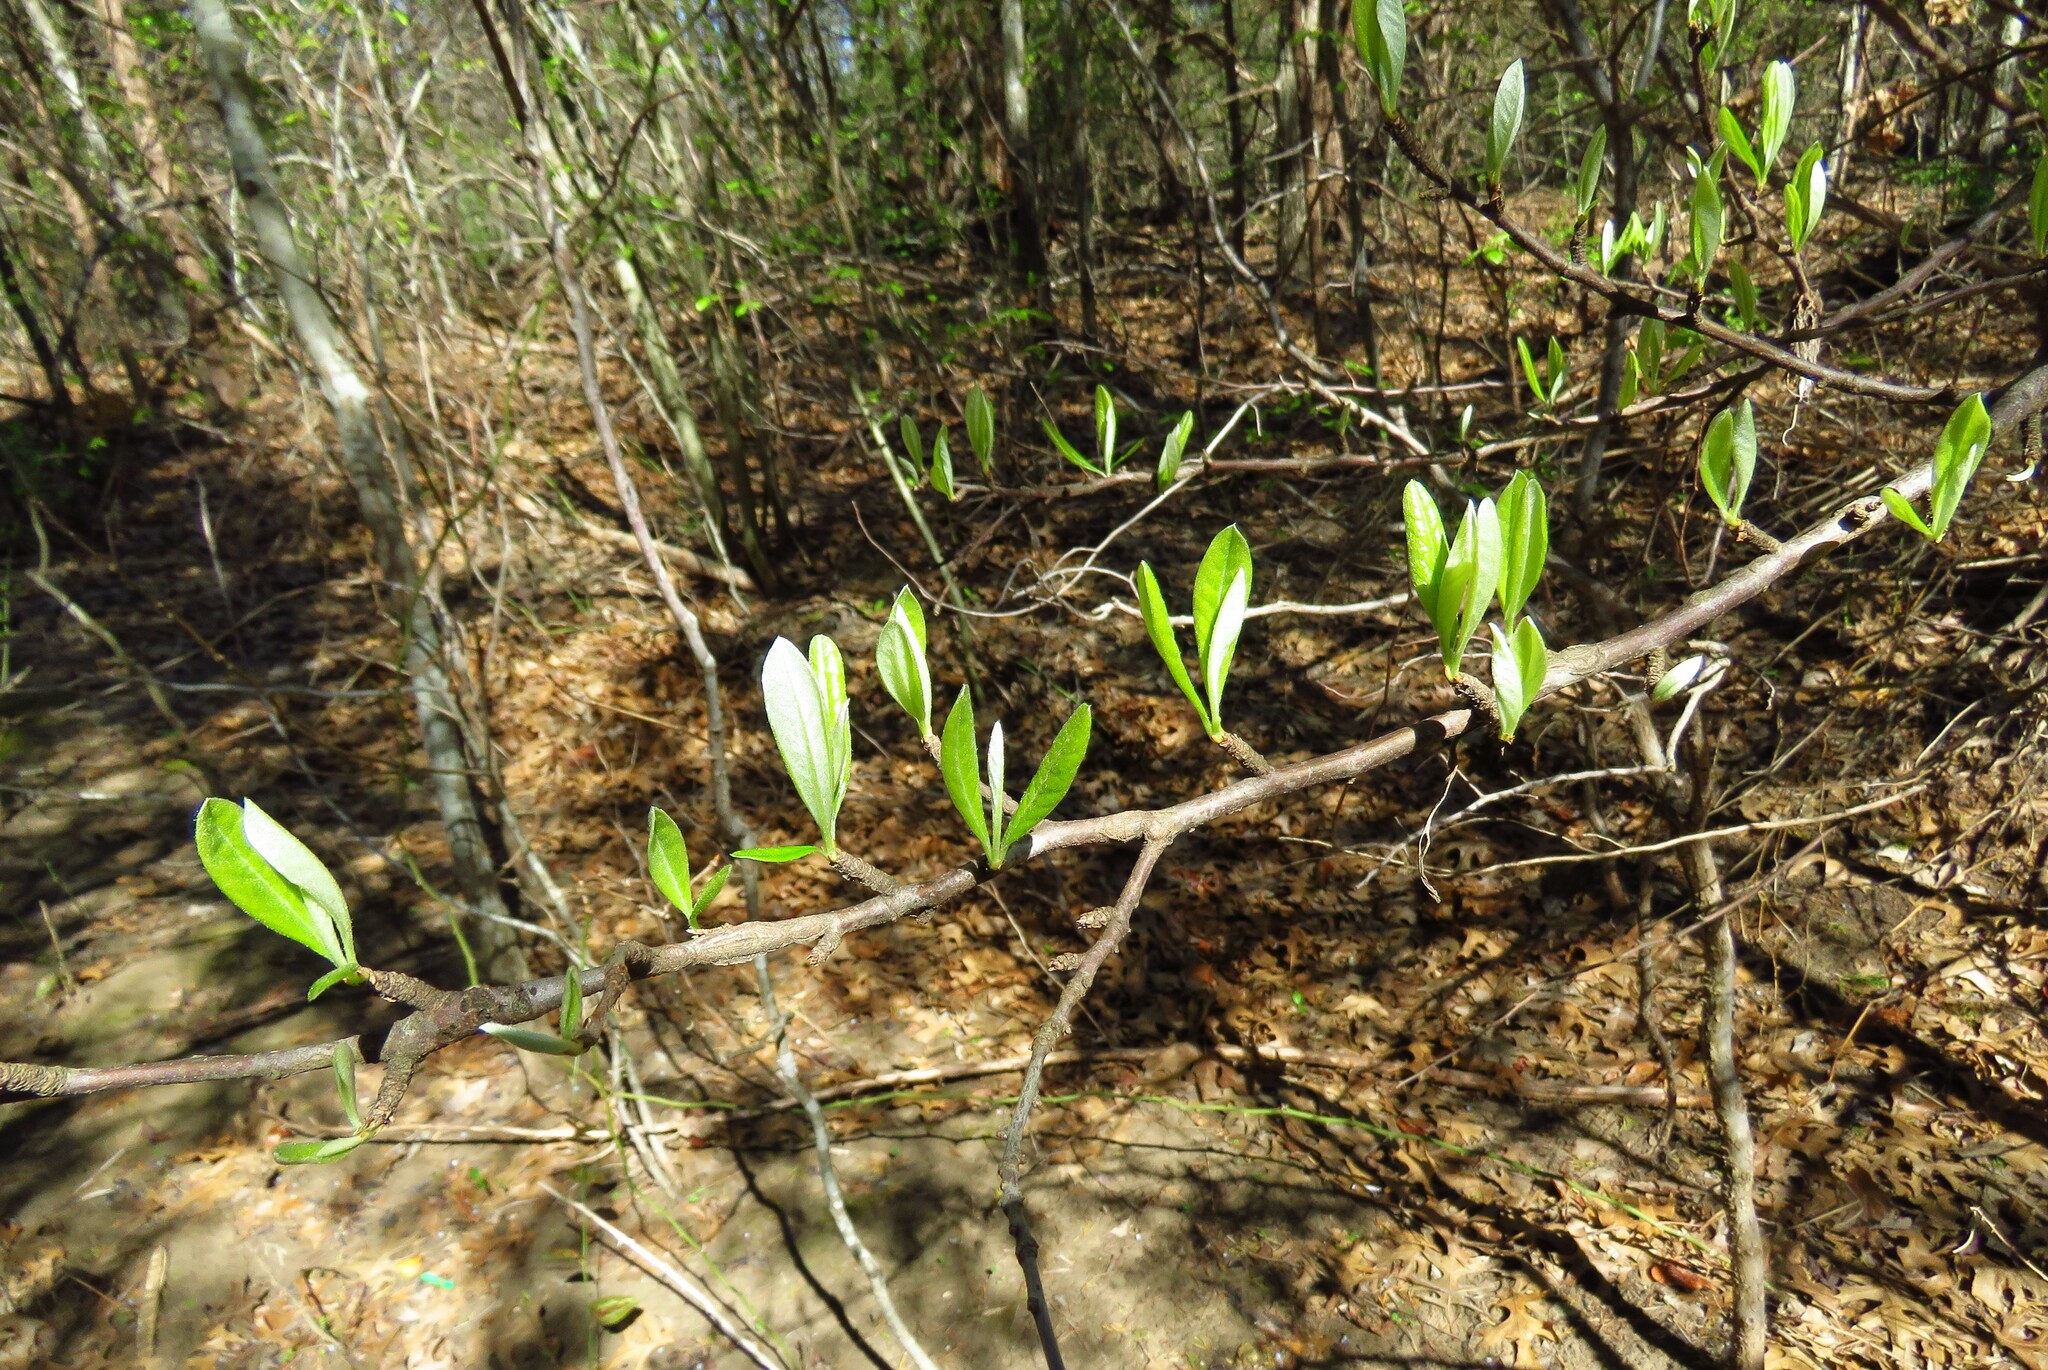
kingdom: Plantae
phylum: Tracheophyta
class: Magnoliopsida
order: Ericales
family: Sapotaceae
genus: Sideroxylon
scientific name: Sideroxylon lanuginosum
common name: Chittamwood
